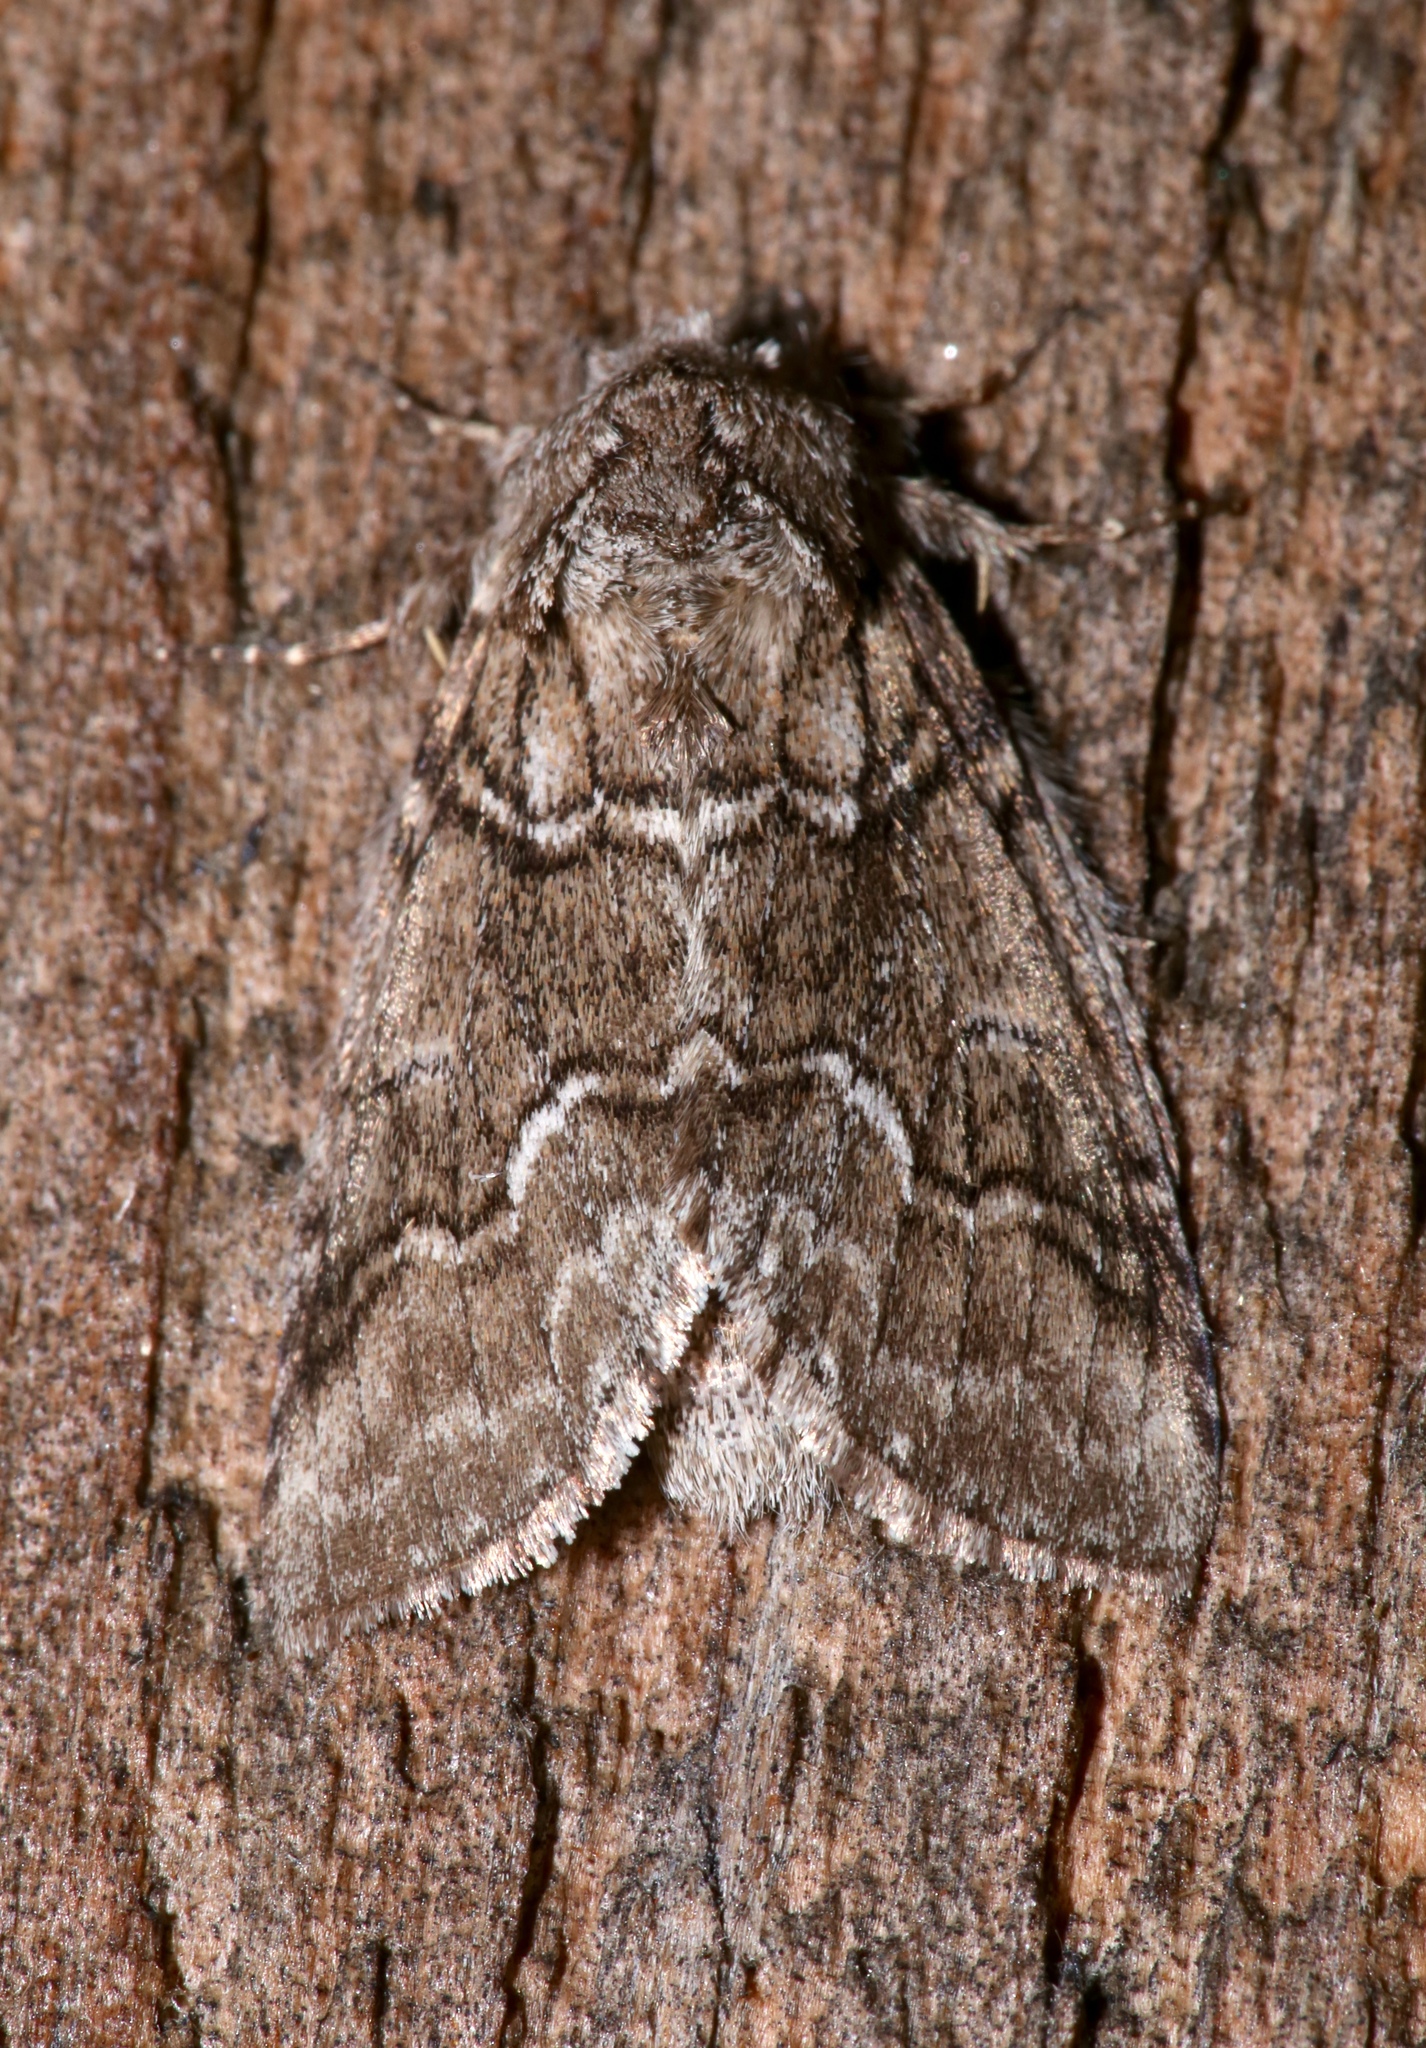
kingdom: Animalia
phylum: Arthropoda
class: Insecta
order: Lepidoptera
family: Notodontidae
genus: Lochmaeus
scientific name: Lochmaeus bilineata
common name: Double-lined prominent
